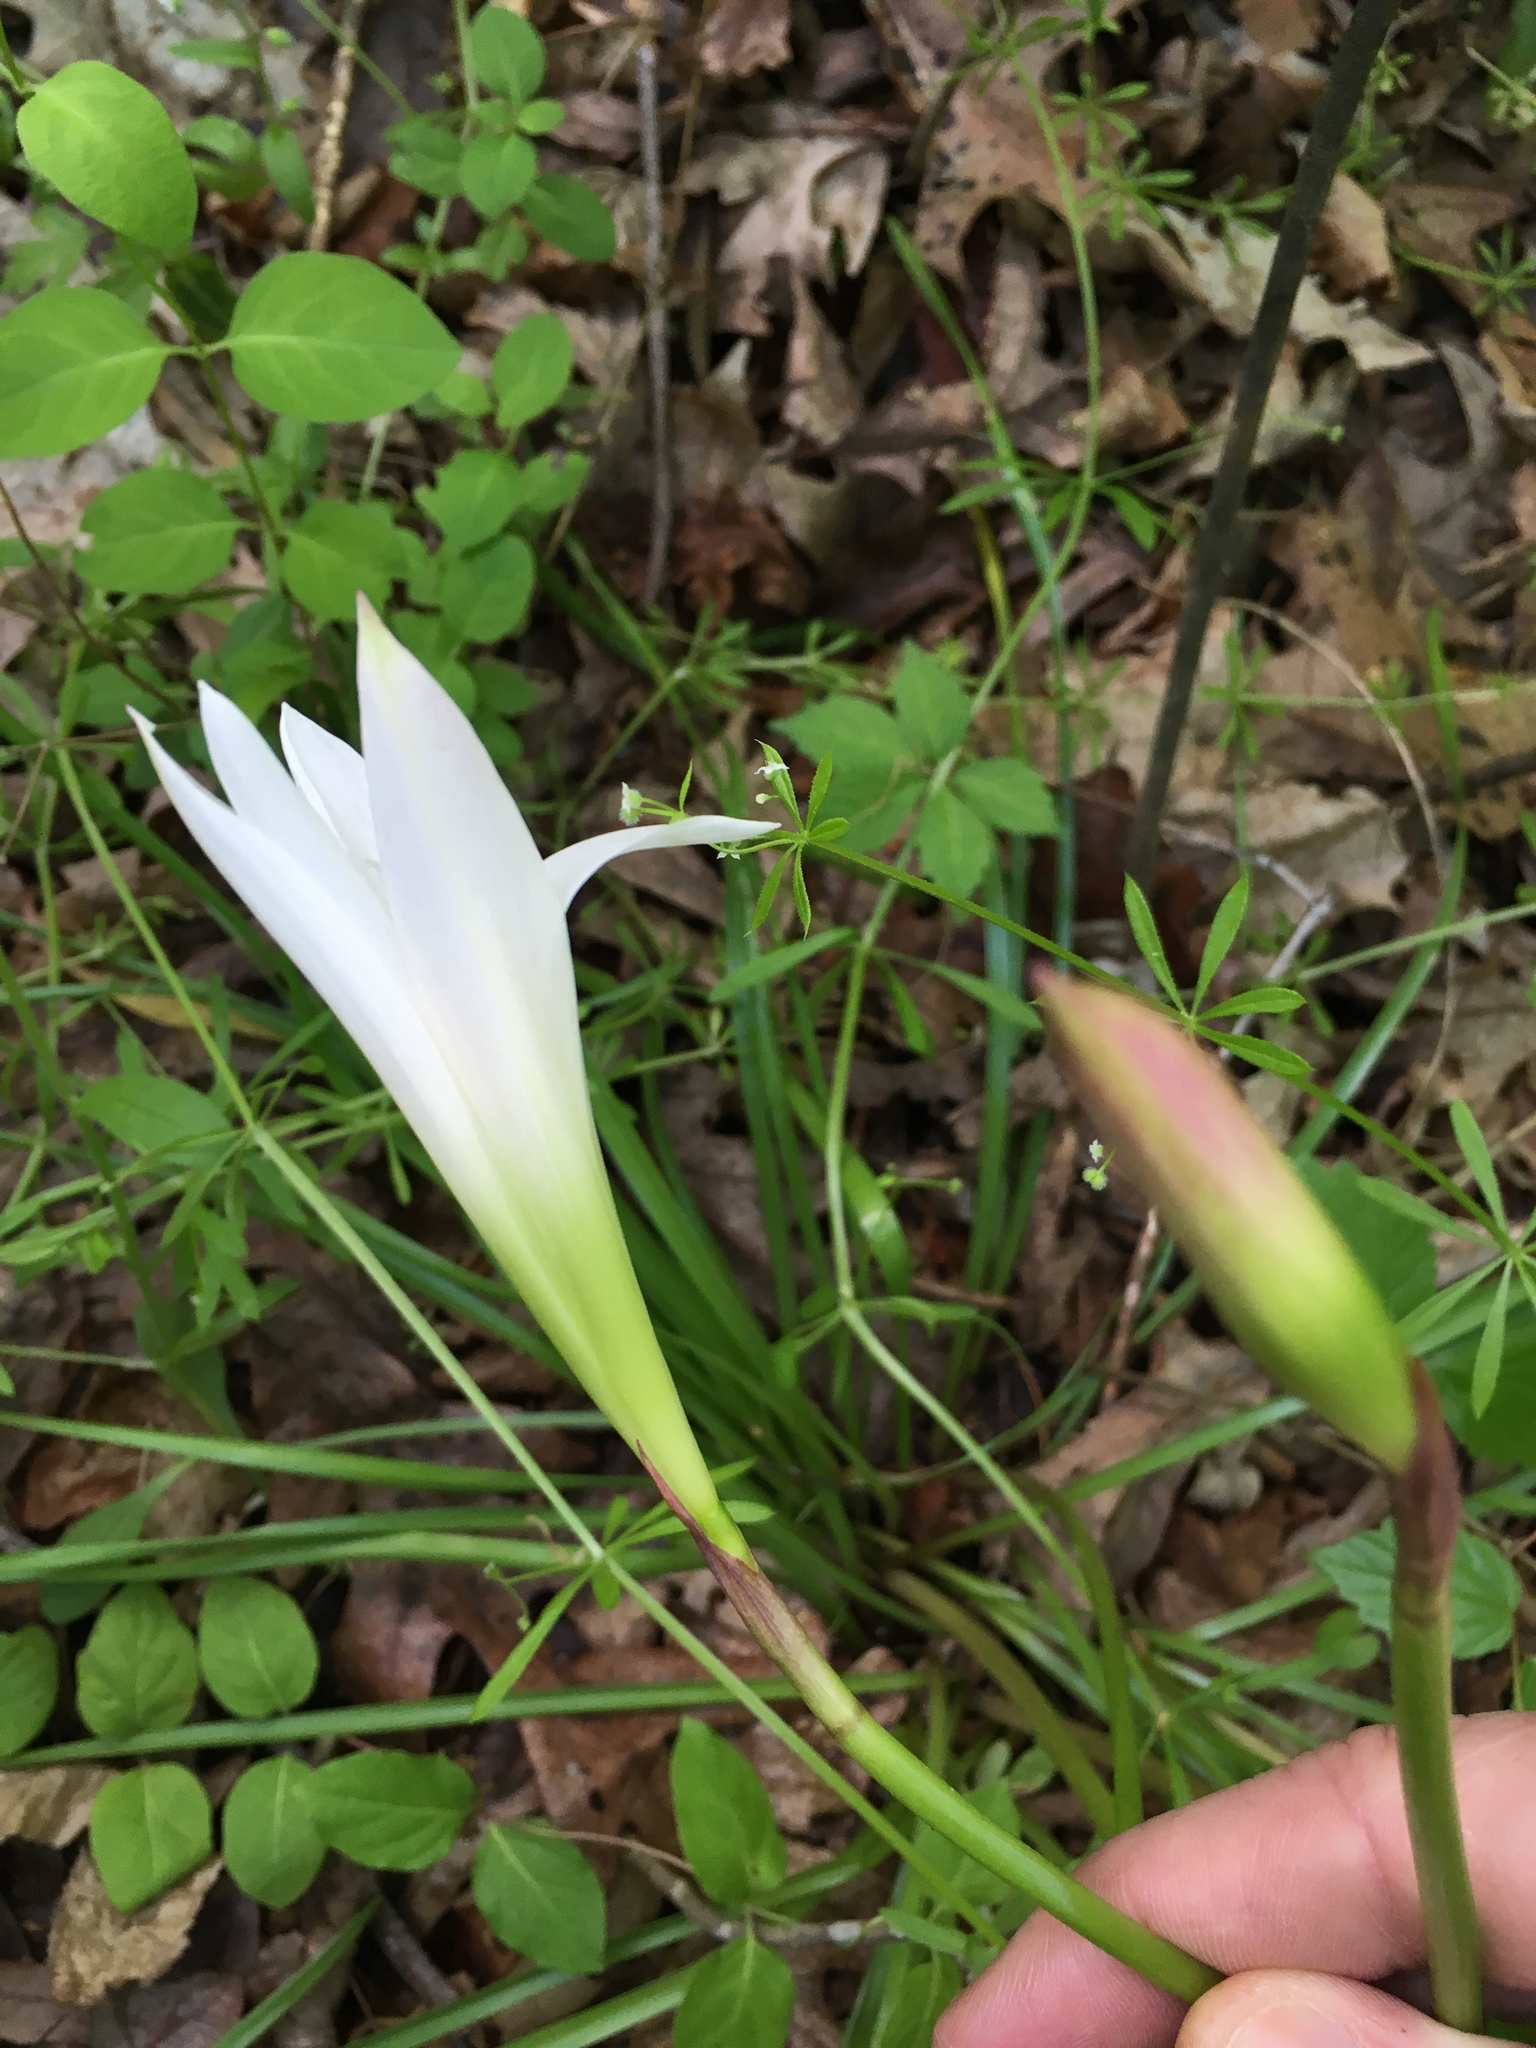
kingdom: Plantae
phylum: Tracheophyta
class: Liliopsida
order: Asparagales
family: Amaryllidaceae
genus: Zephyranthes
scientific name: Zephyranthes atamasco
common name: Atamasco lily
